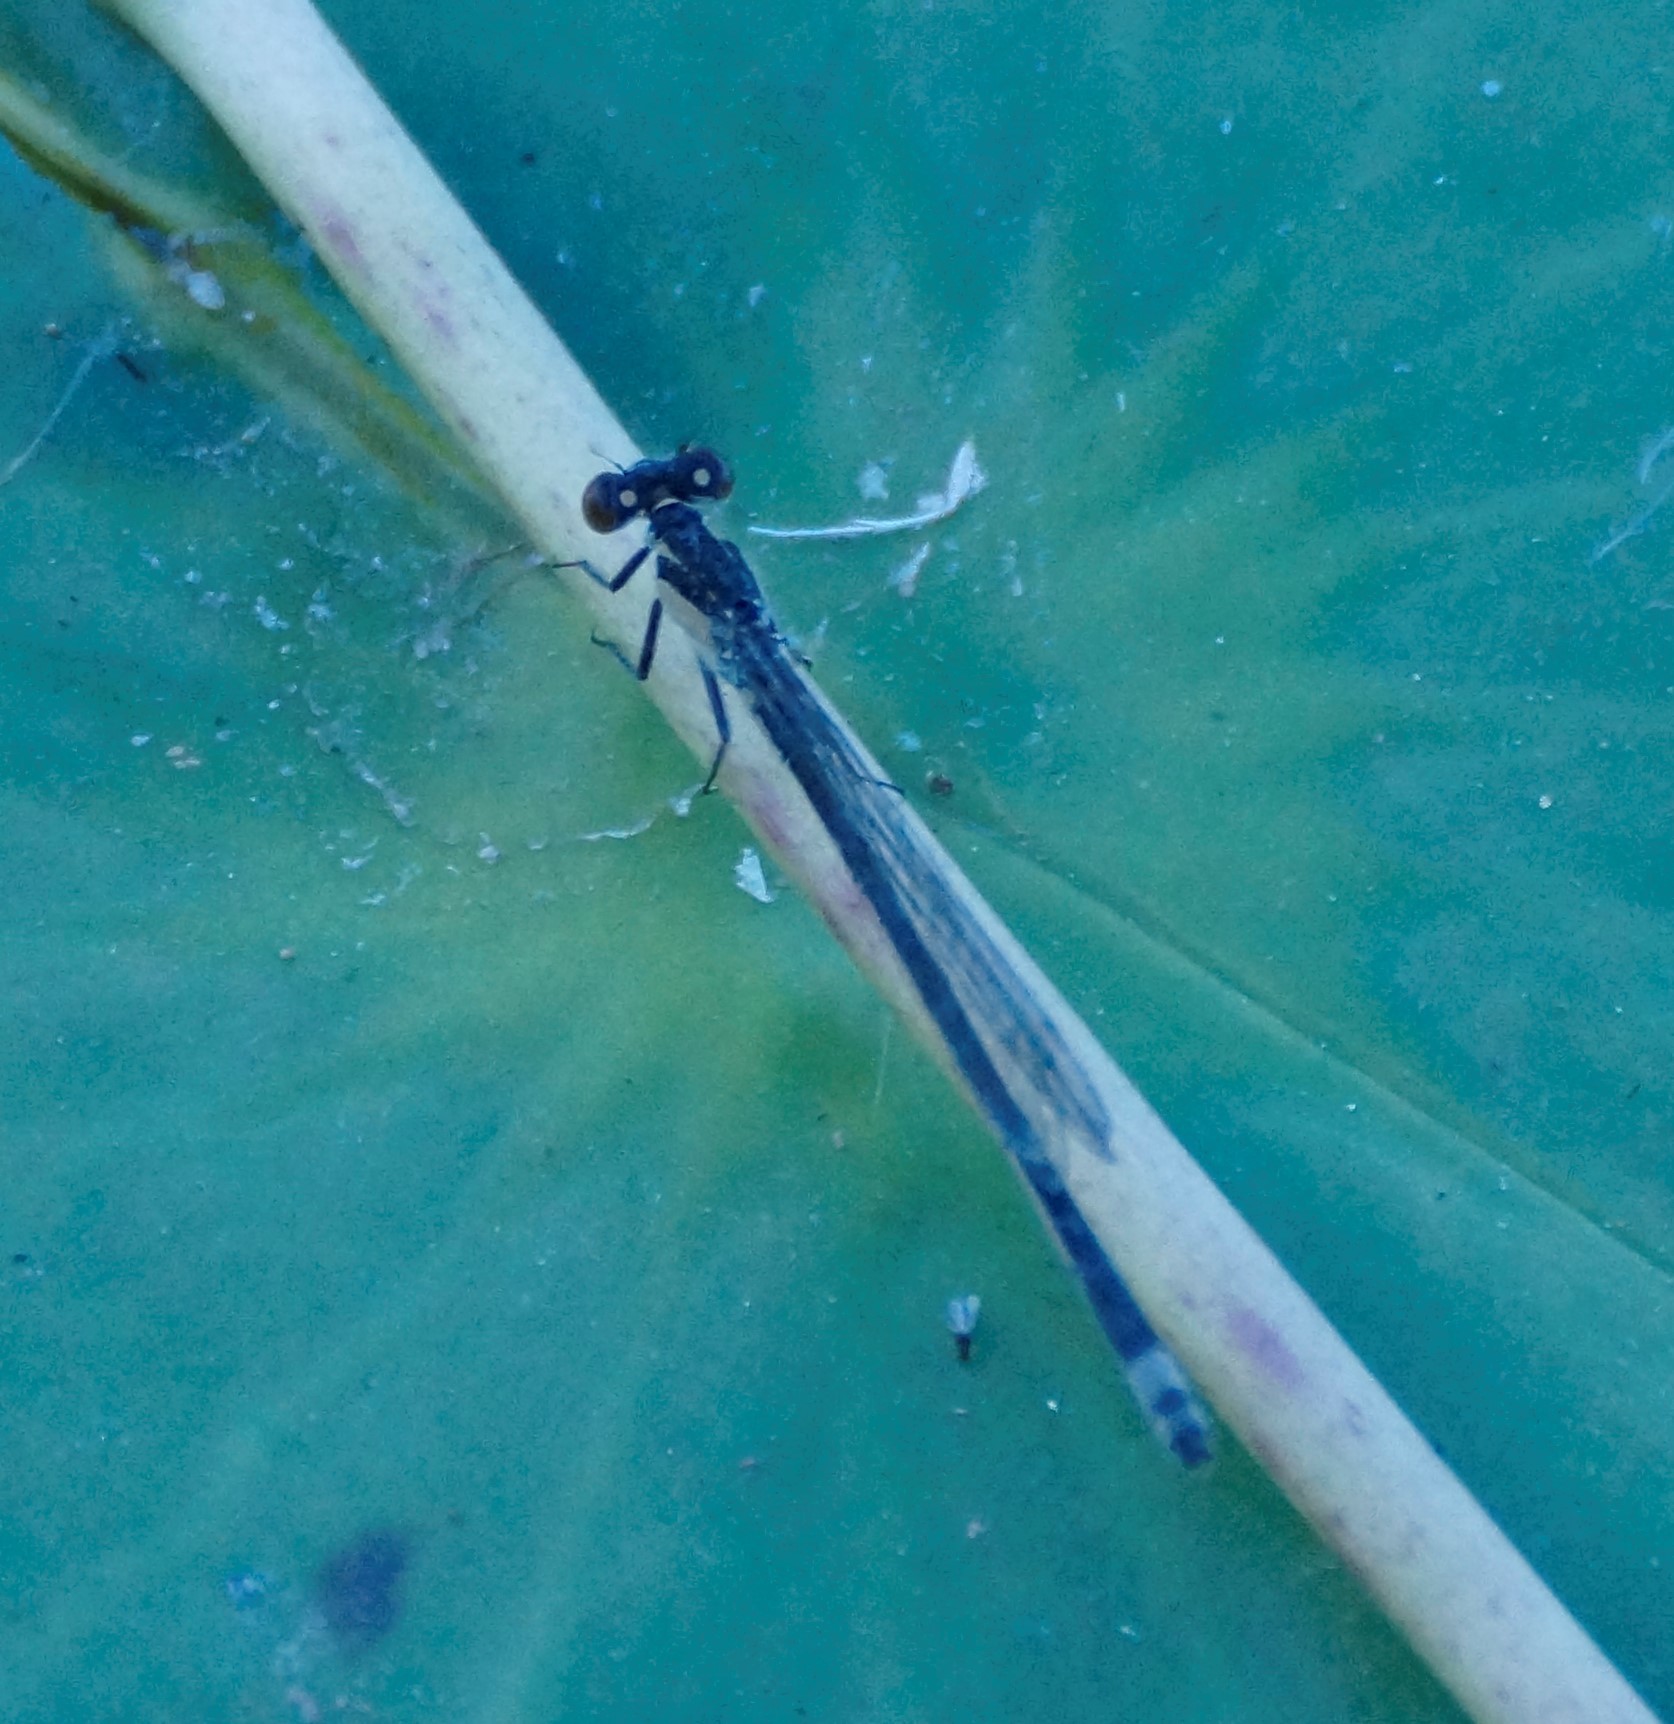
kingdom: Animalia
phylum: Arthropoda
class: Insecta
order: Odonata
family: Coenagrionidae
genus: Ischnura
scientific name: Ischnura heterosticta
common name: Common bluetail
